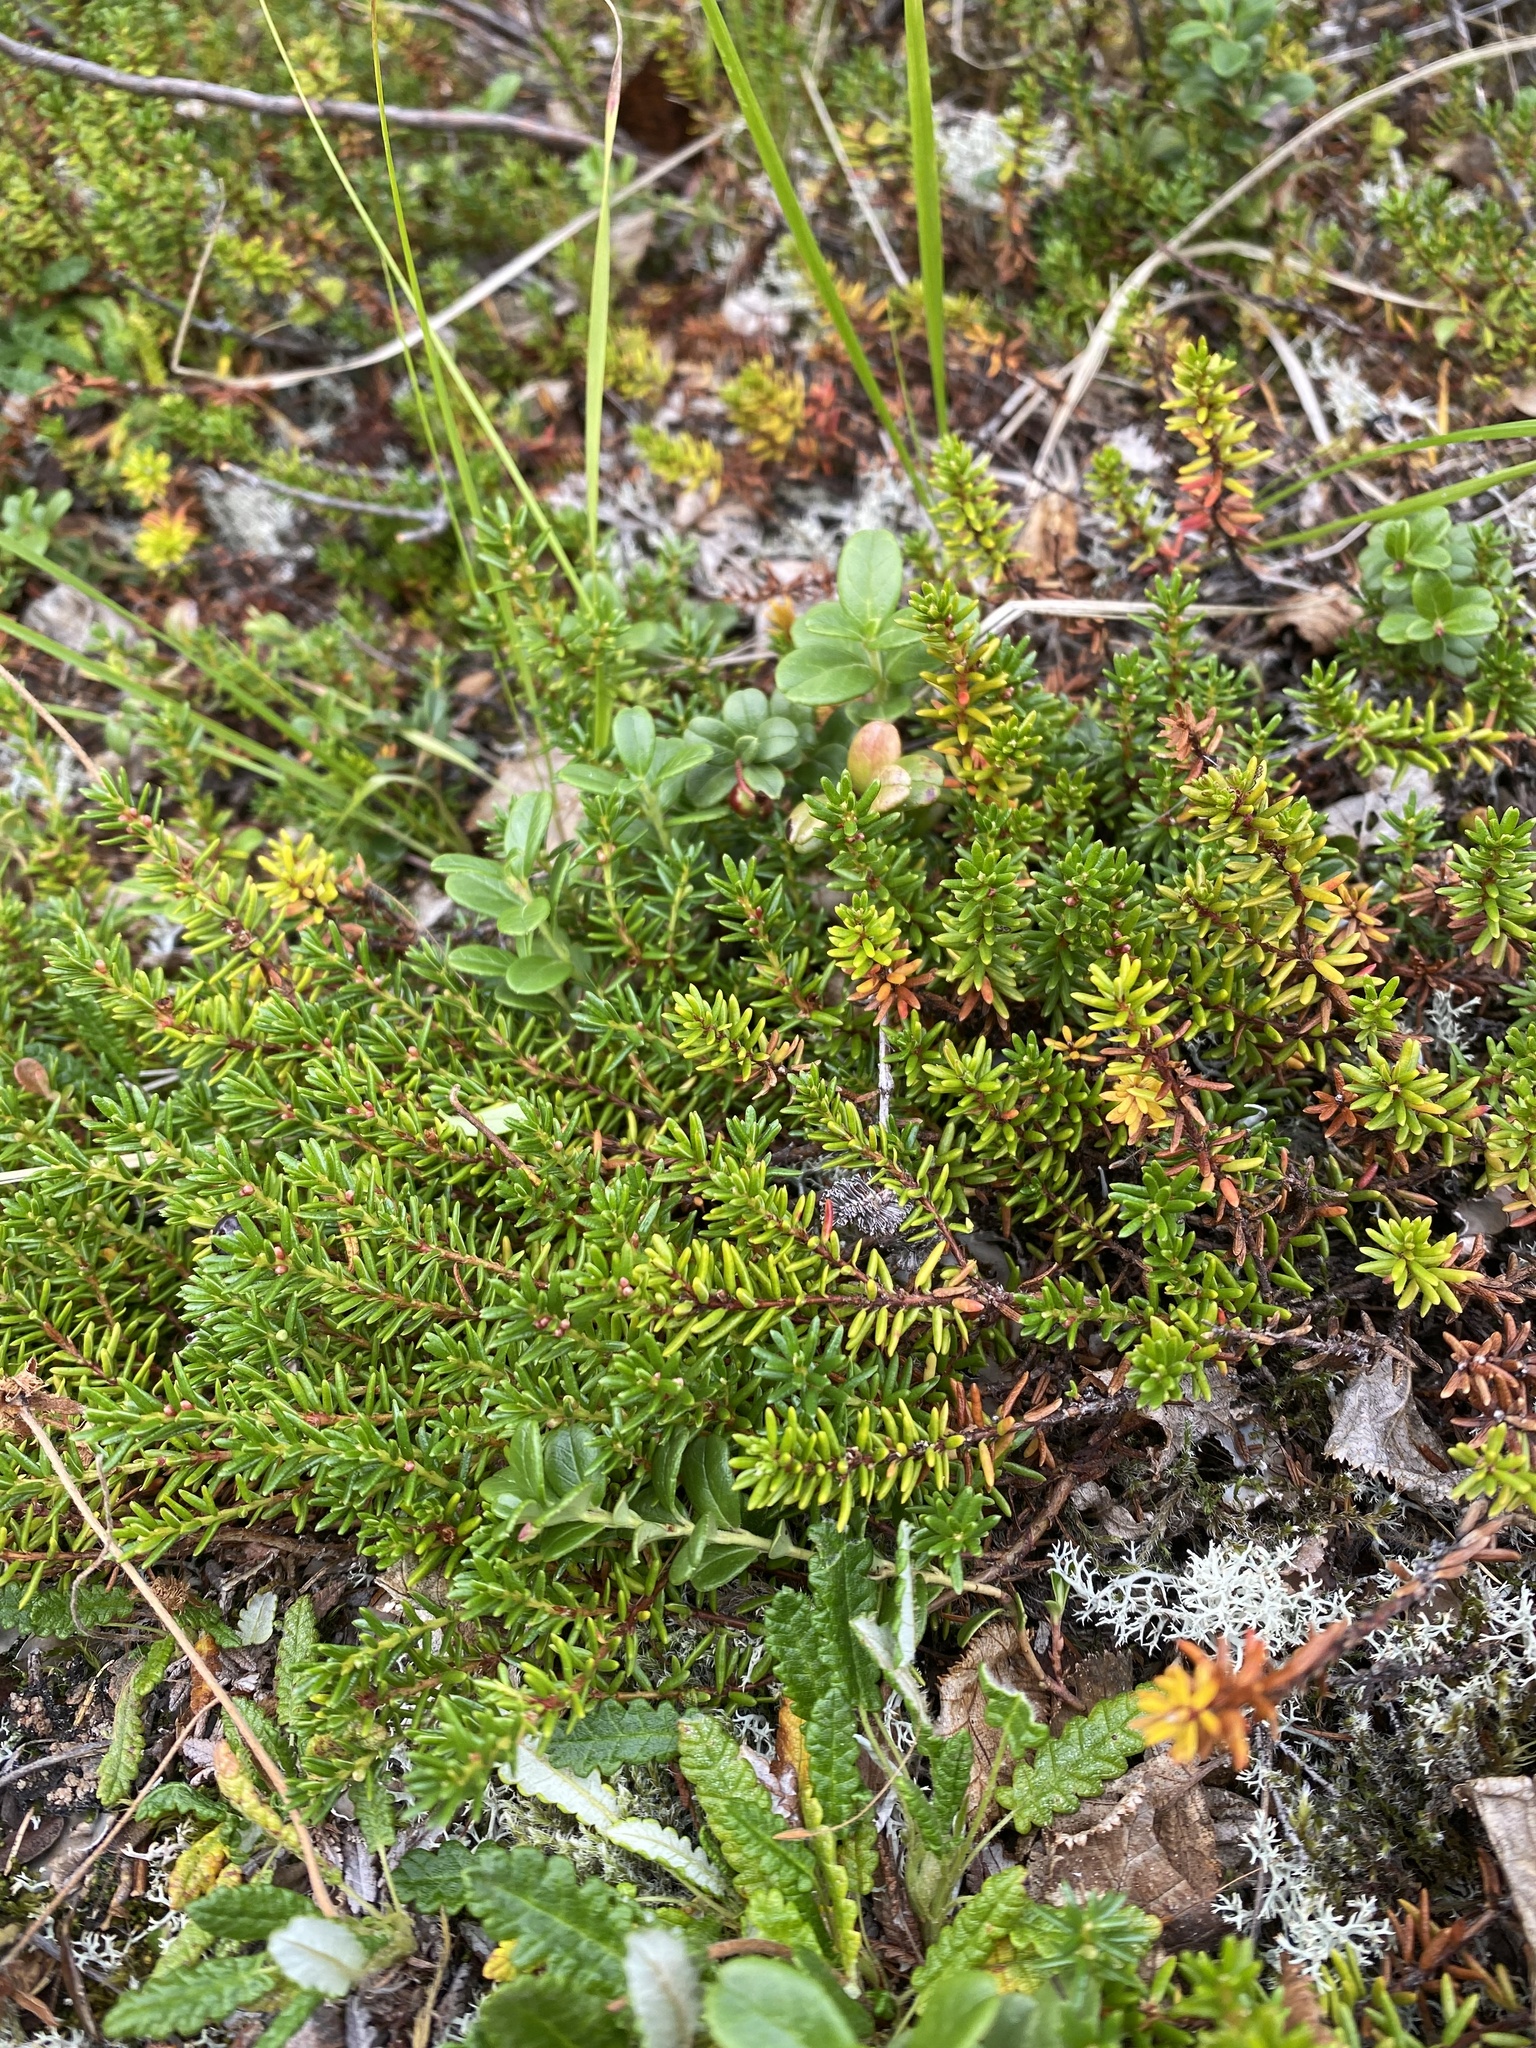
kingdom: Plantae
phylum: Tracheophyta
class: Magnoliopsida
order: Ericales
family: Ericaceae
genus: Empetrum
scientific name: Empetrum nigrum
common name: Black crowberry
